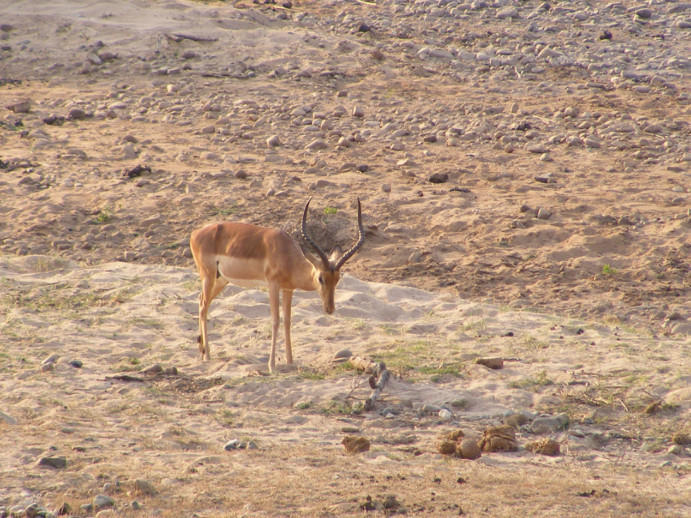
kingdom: Animalia
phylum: Chordata
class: Mammalia
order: Artiodactyla
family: Bovidae
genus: Aepyceros
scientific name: Aepyceros melampus
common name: Impala
